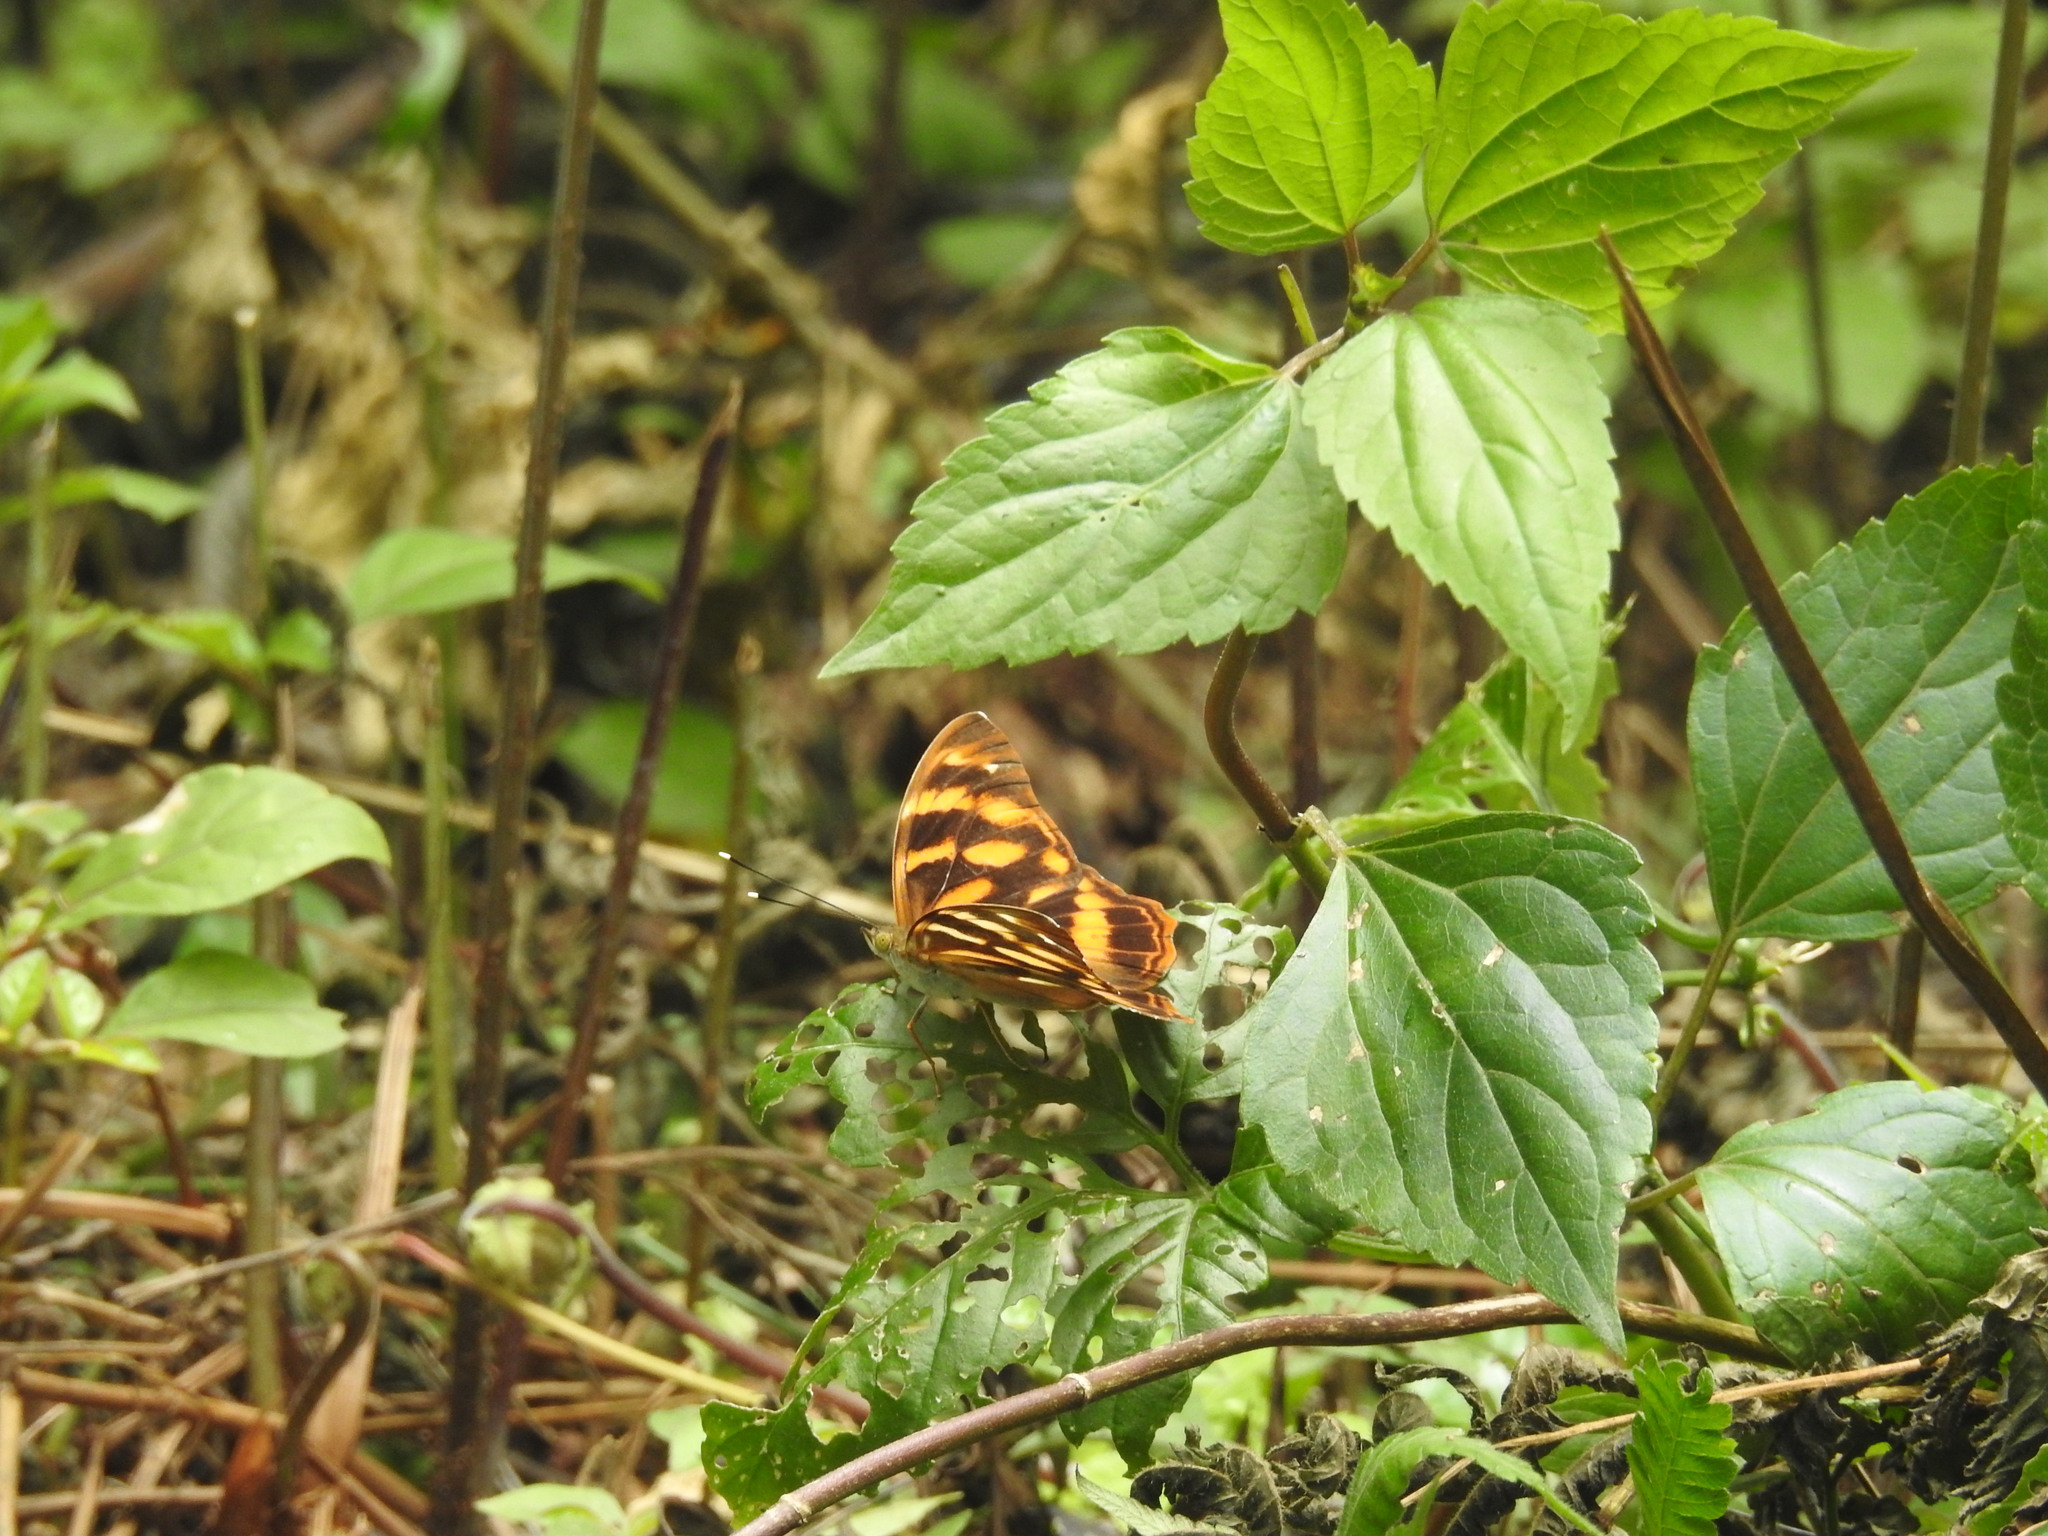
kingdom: Animalia
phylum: Arthropoda
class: Insecta
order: Lepidoptera
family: Nymphalidae
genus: Herona
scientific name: Herona marathus
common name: Yellow pasha
